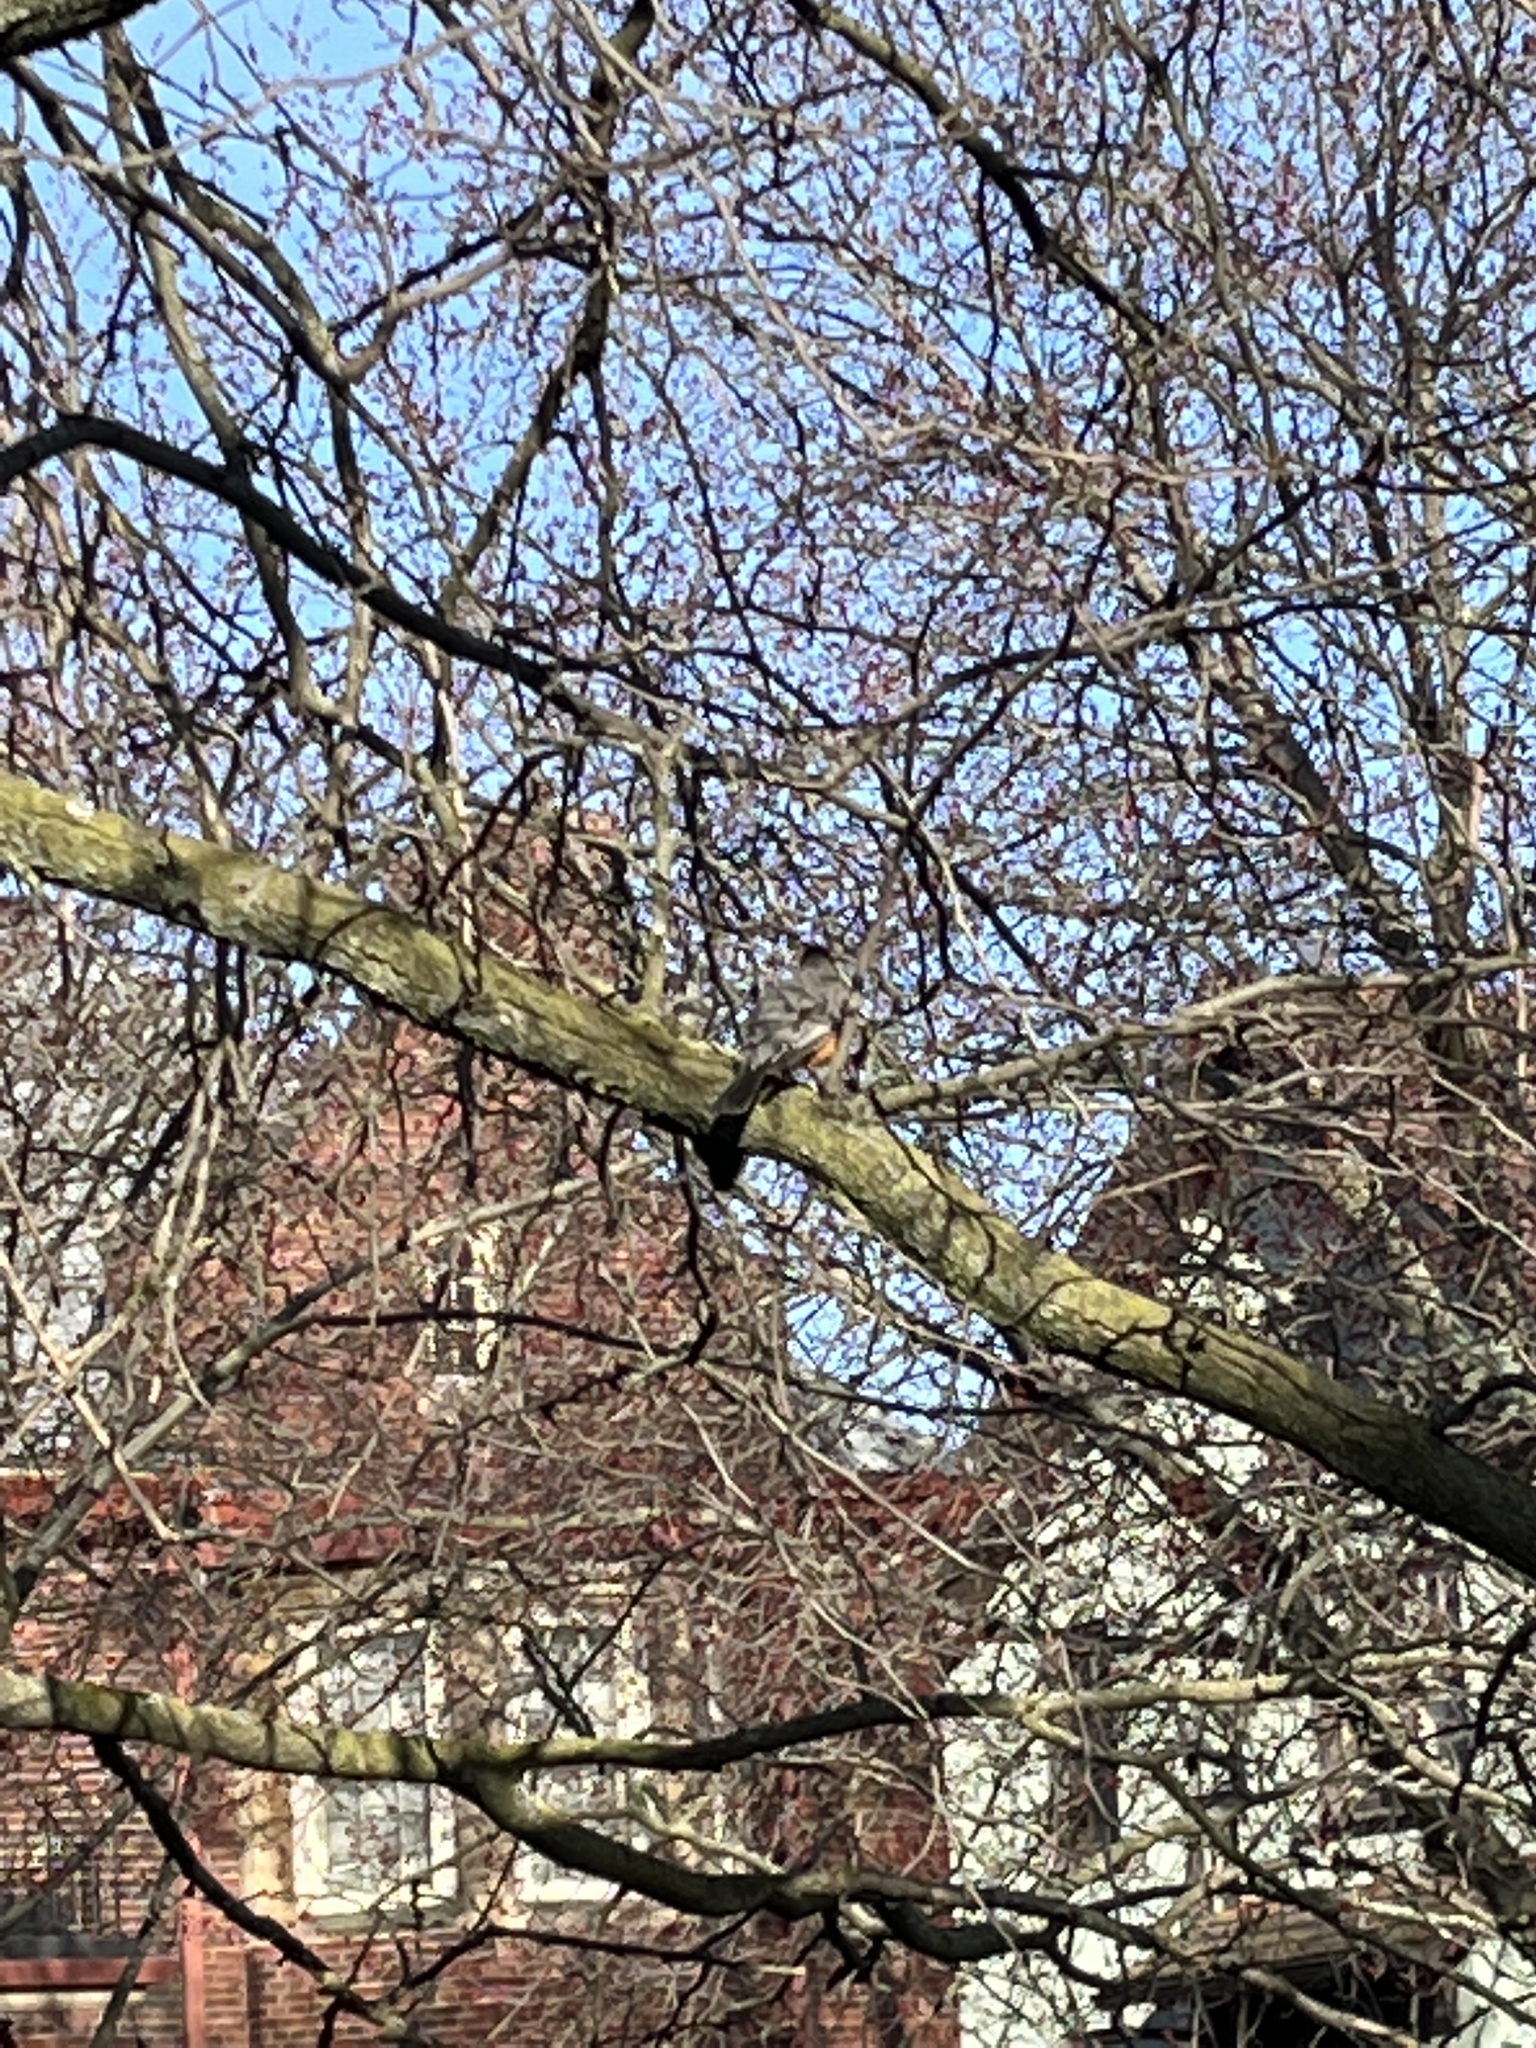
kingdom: Animalia
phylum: Chordata
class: Aves
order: Passeriformes
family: Turdidae
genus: Turdus
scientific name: Turdus migratorius
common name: American robin
